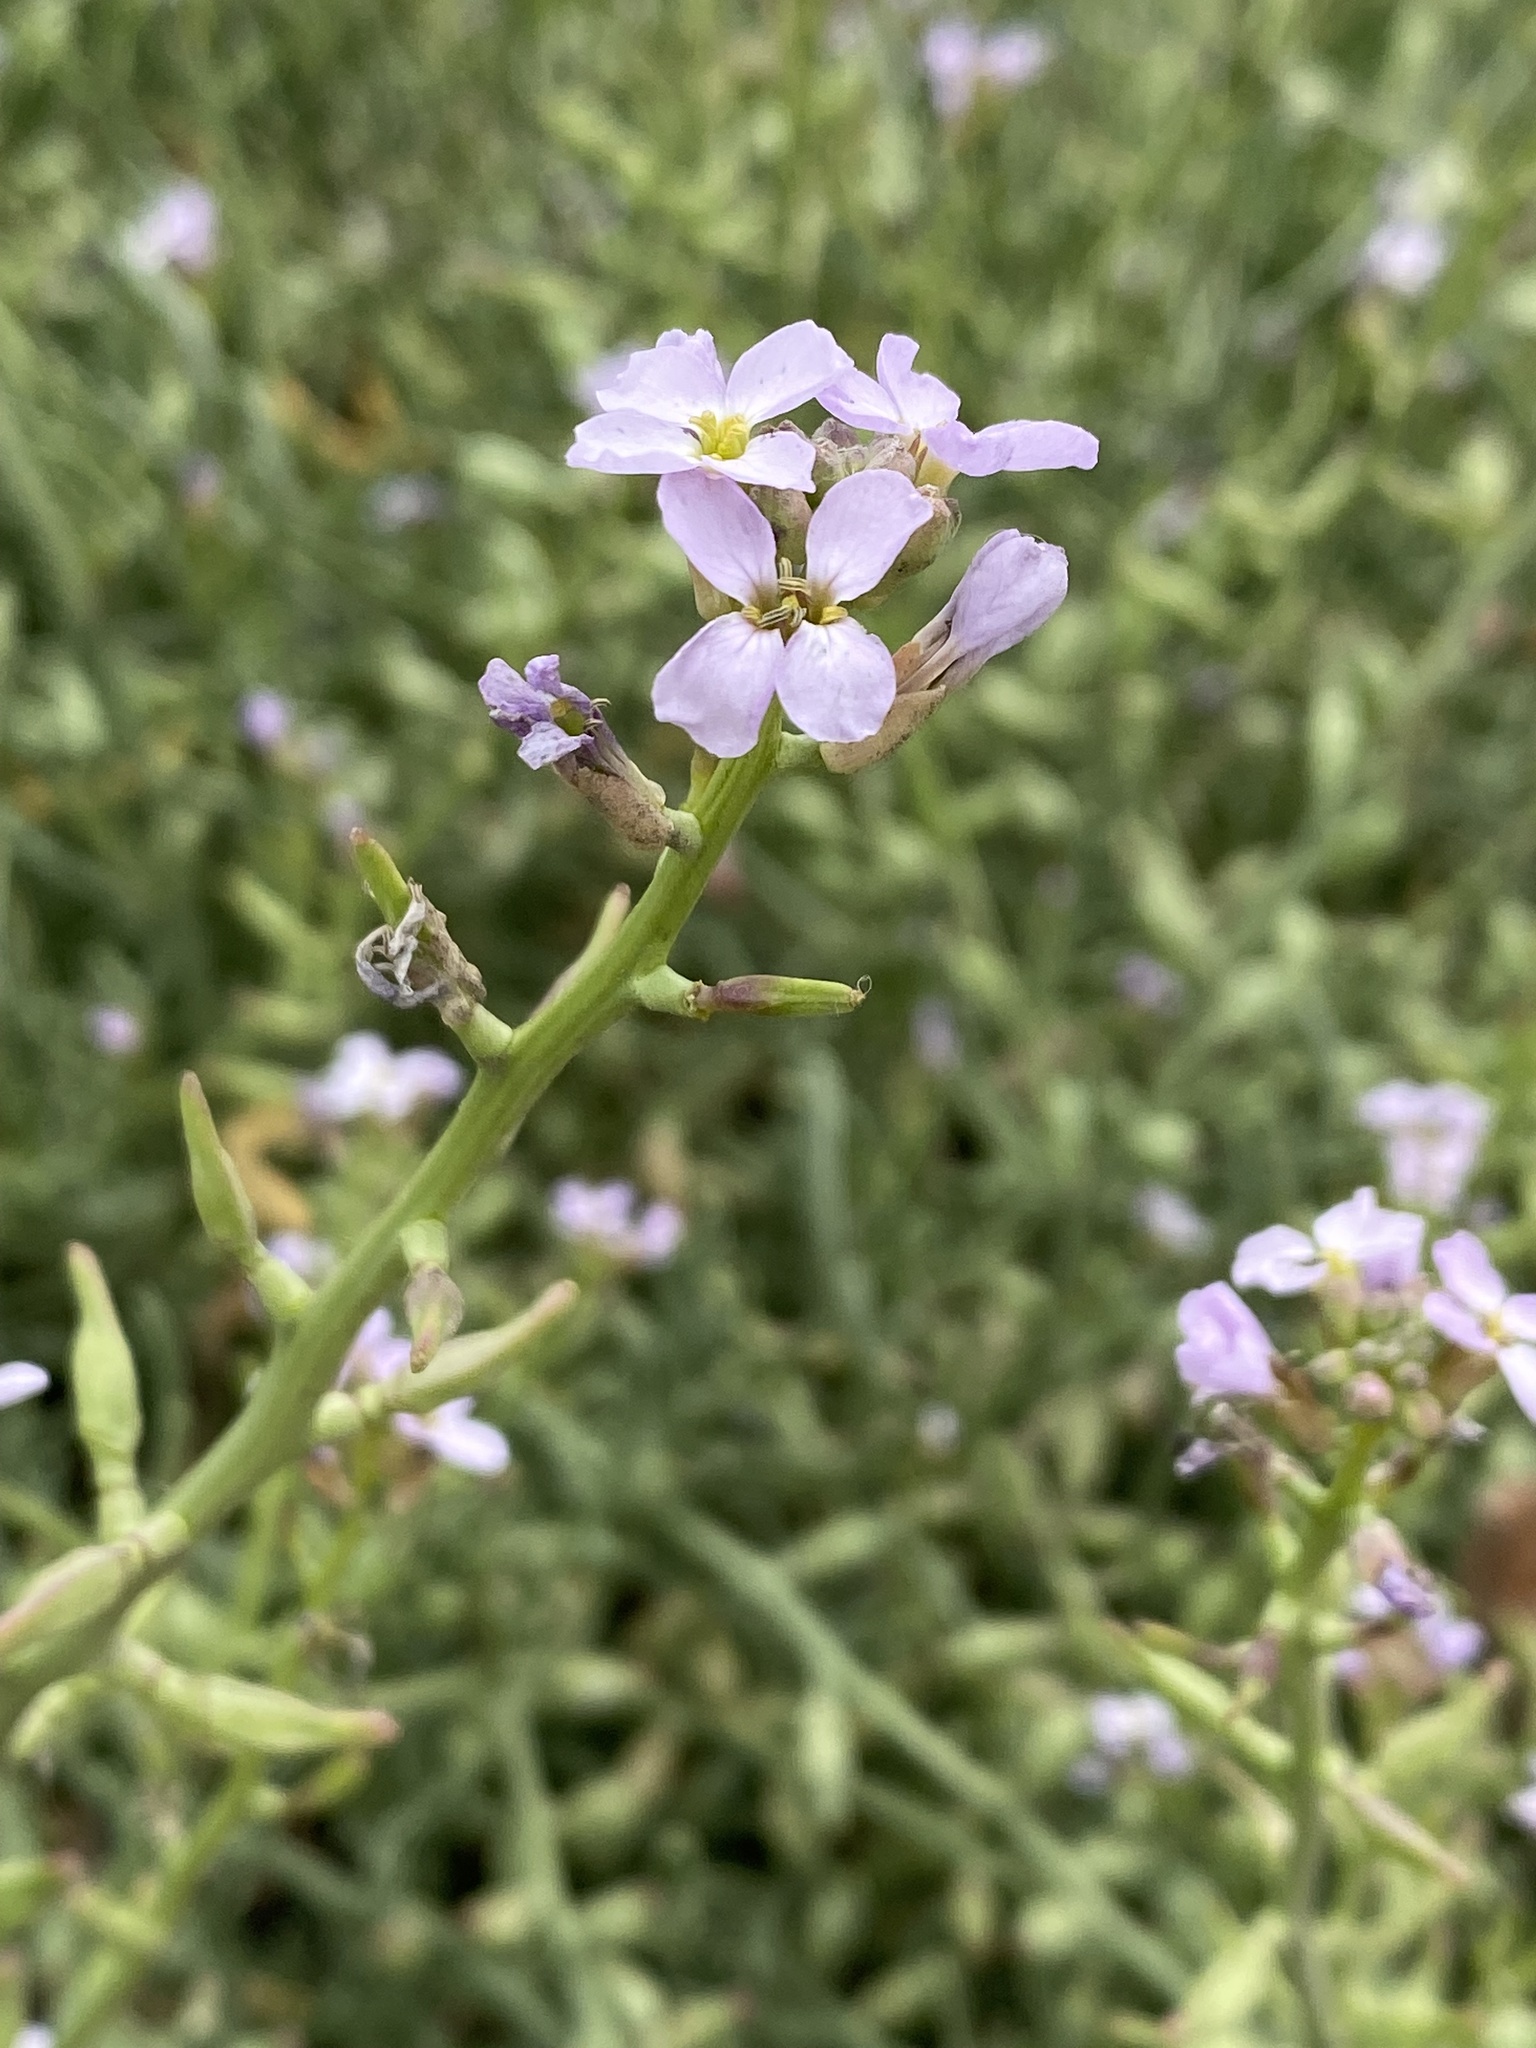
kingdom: Plantae
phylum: Tracheophyta
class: Magnoliopsida
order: Brassicales
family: Brassicaceae
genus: Cakile
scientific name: Cakile maritima
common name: Sea rocket
